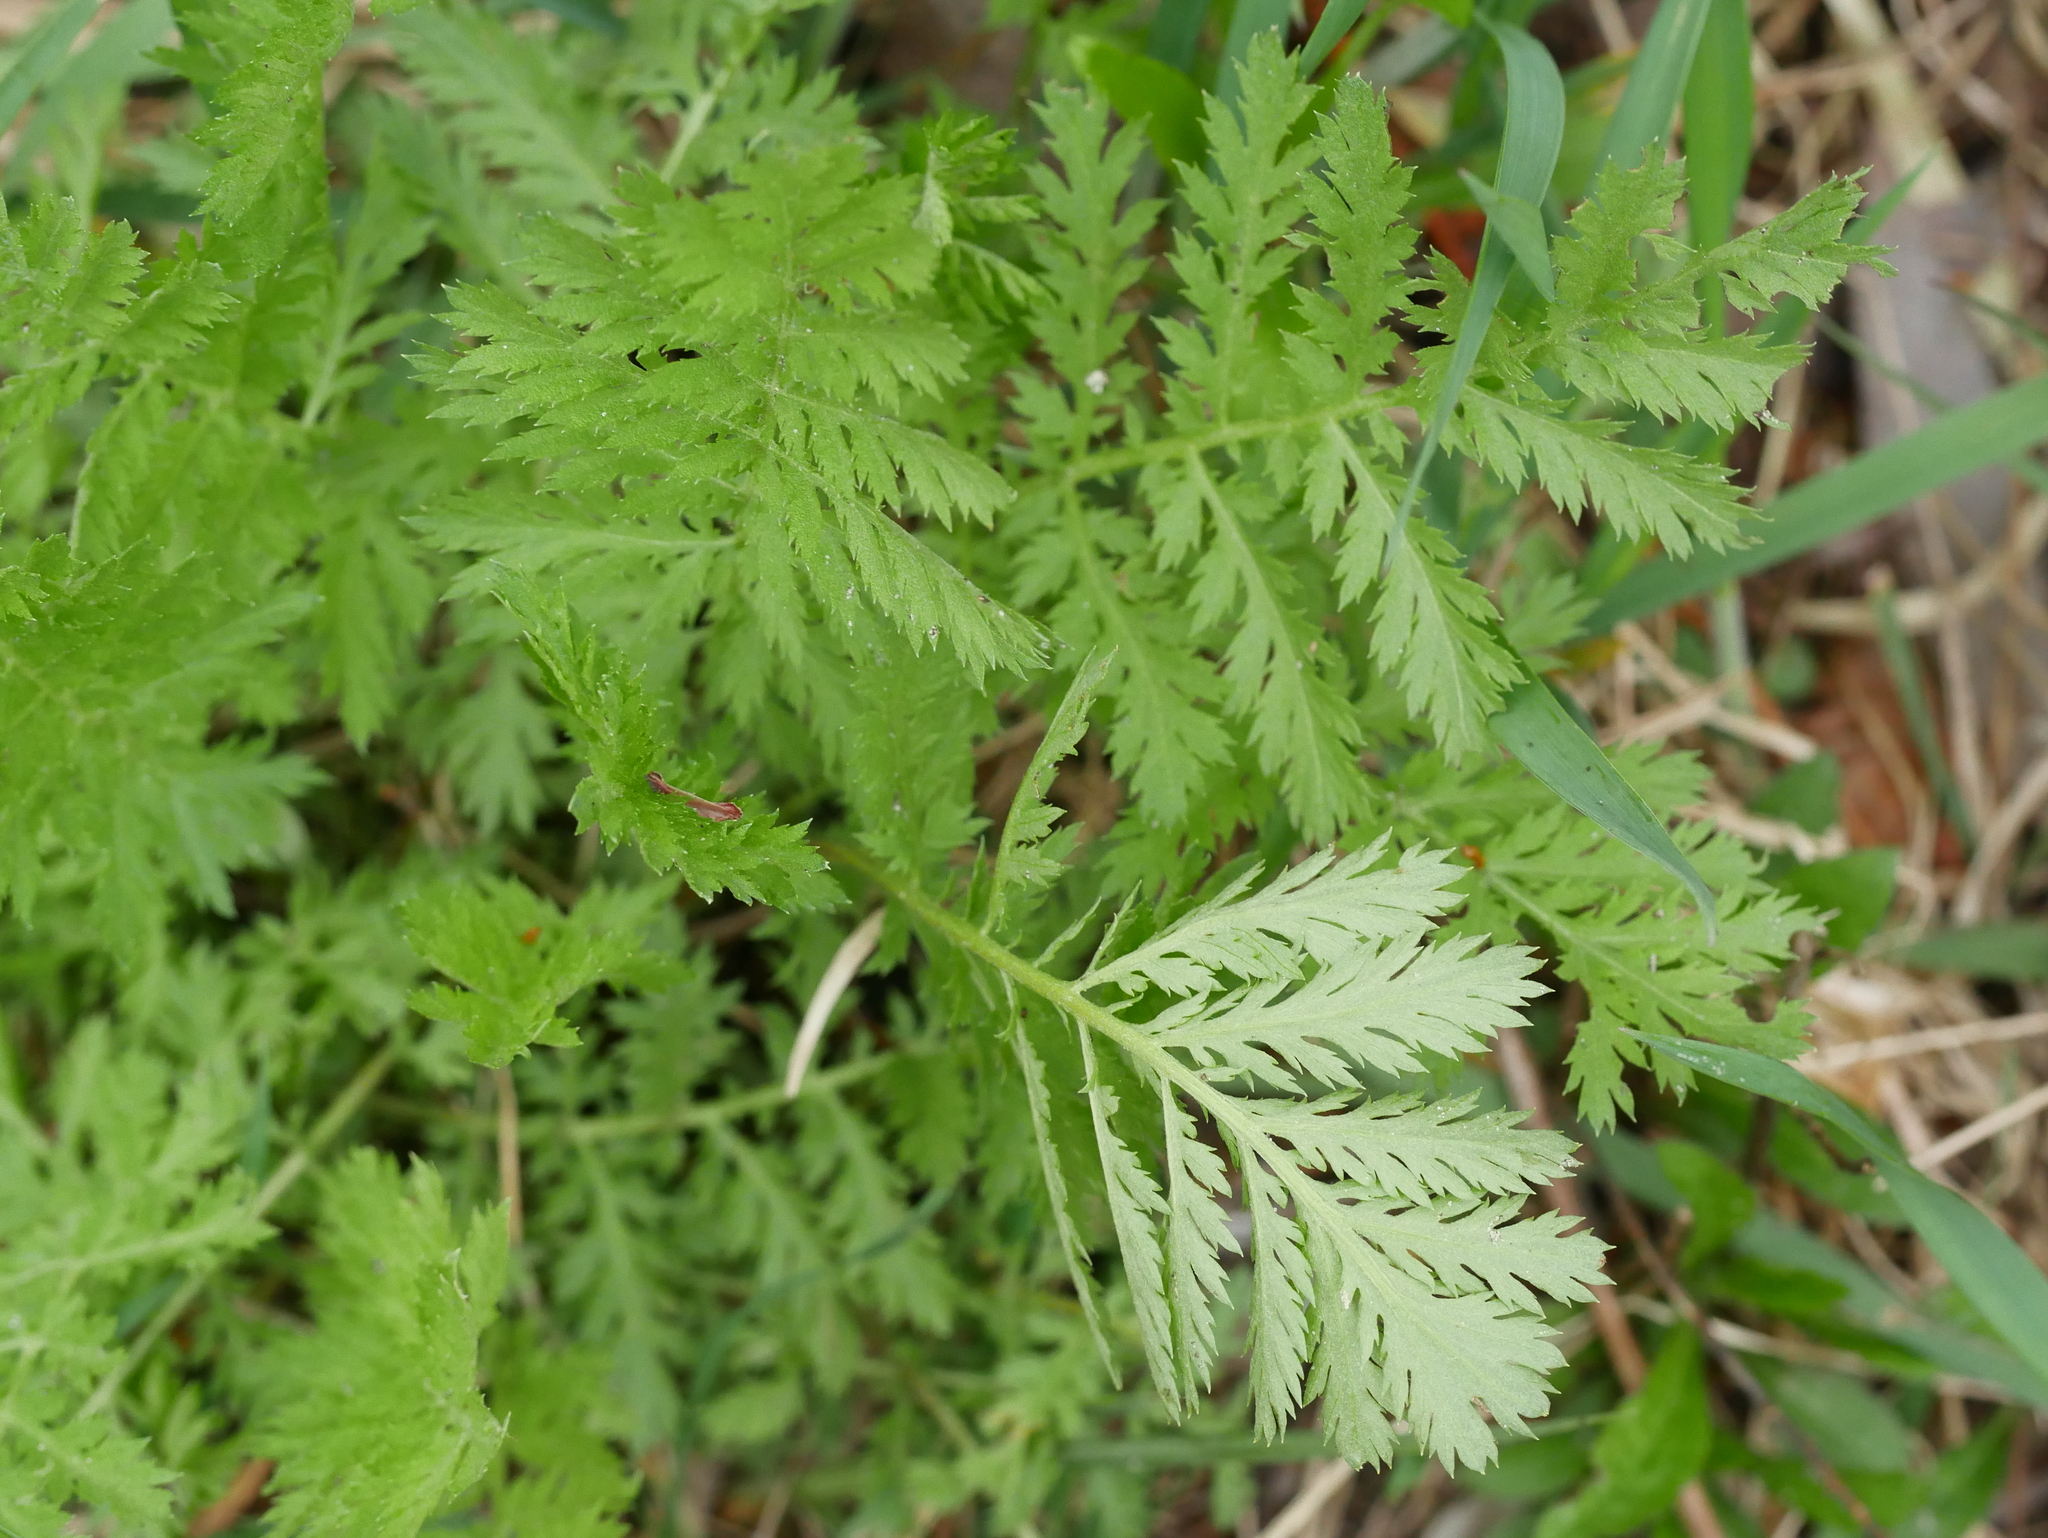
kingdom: Plantae
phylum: Tracheophyta
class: Magnoliopsida
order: Asterales
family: Asteraceae
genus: Tanacetum
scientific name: Tanacetum vulgare
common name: Common tansy
